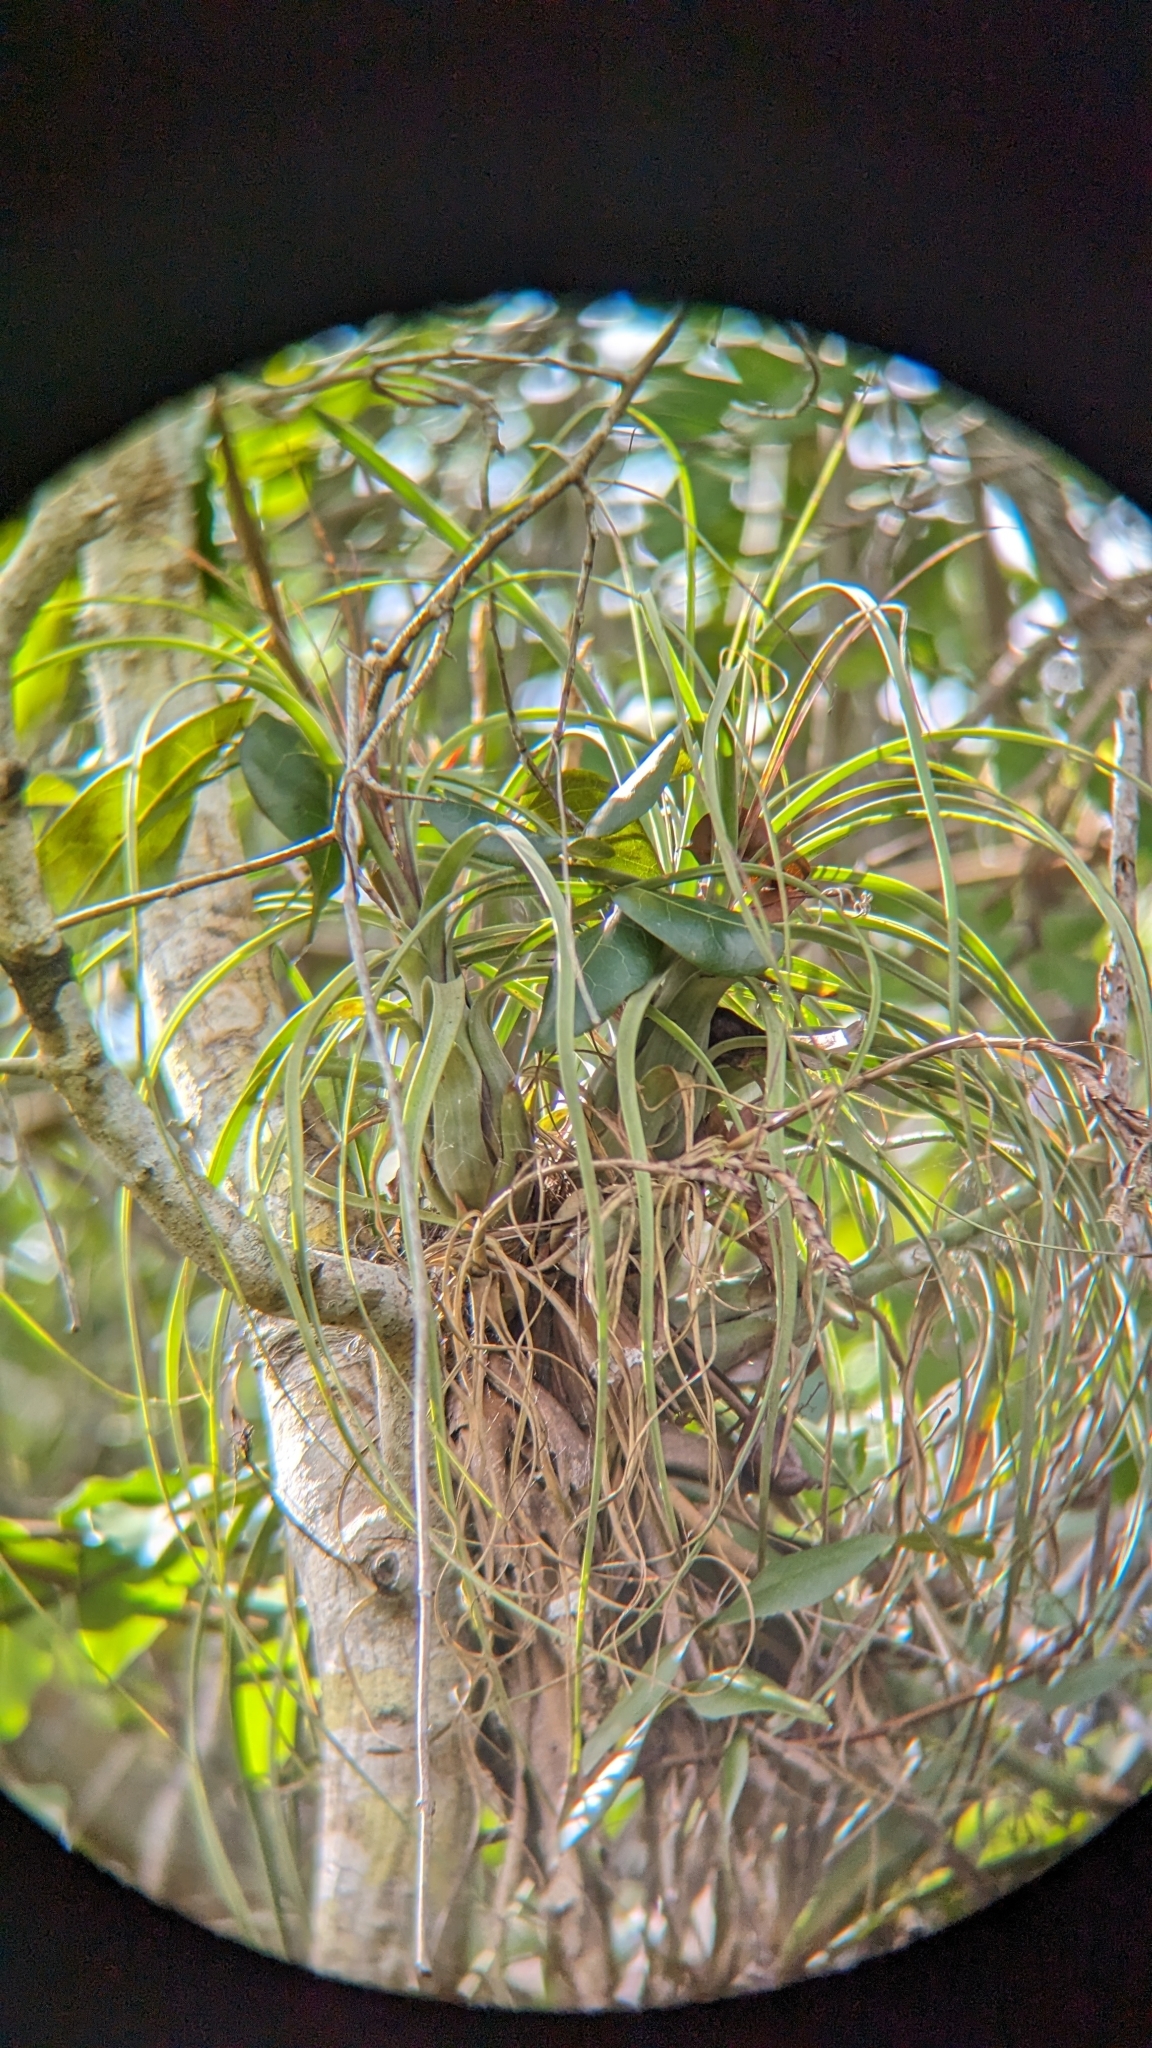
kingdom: Plantae
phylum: Tracheophyta
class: Liliopsida
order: Poales
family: Bromeliaceae
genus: Tillandsia
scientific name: Tillandsia balbisiana
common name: Northern needleleaf
